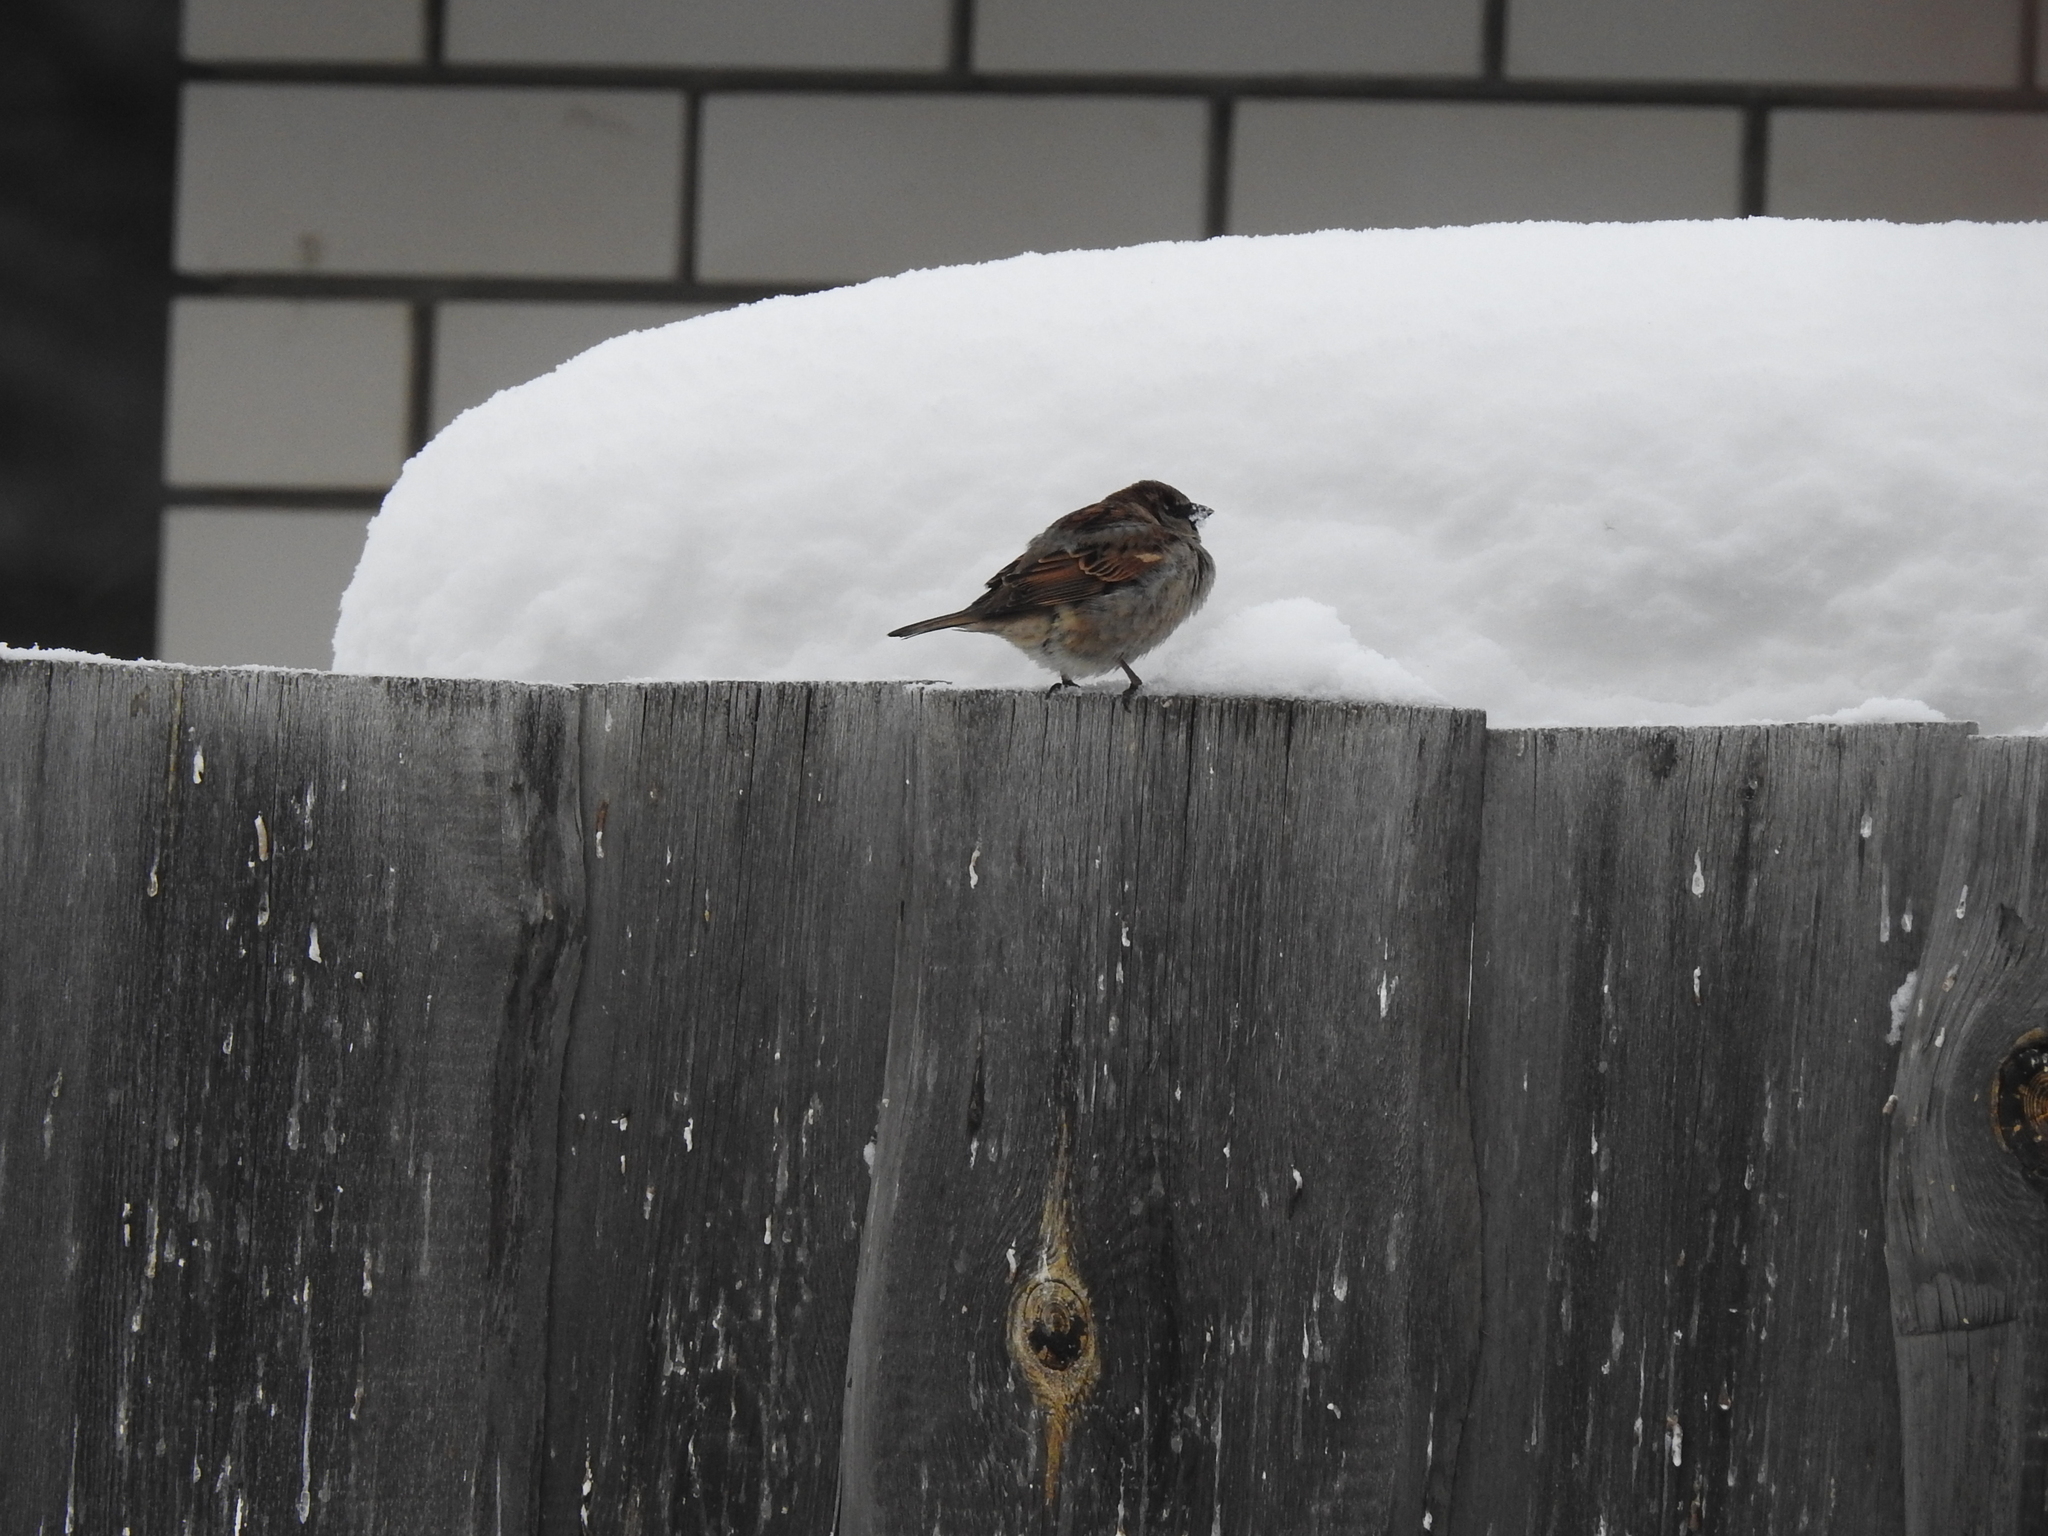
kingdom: Animalia
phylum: Chordata
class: Aves
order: Passeriformes
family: Passeridae
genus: Passer
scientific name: Passer domesticus
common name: House sparrow
